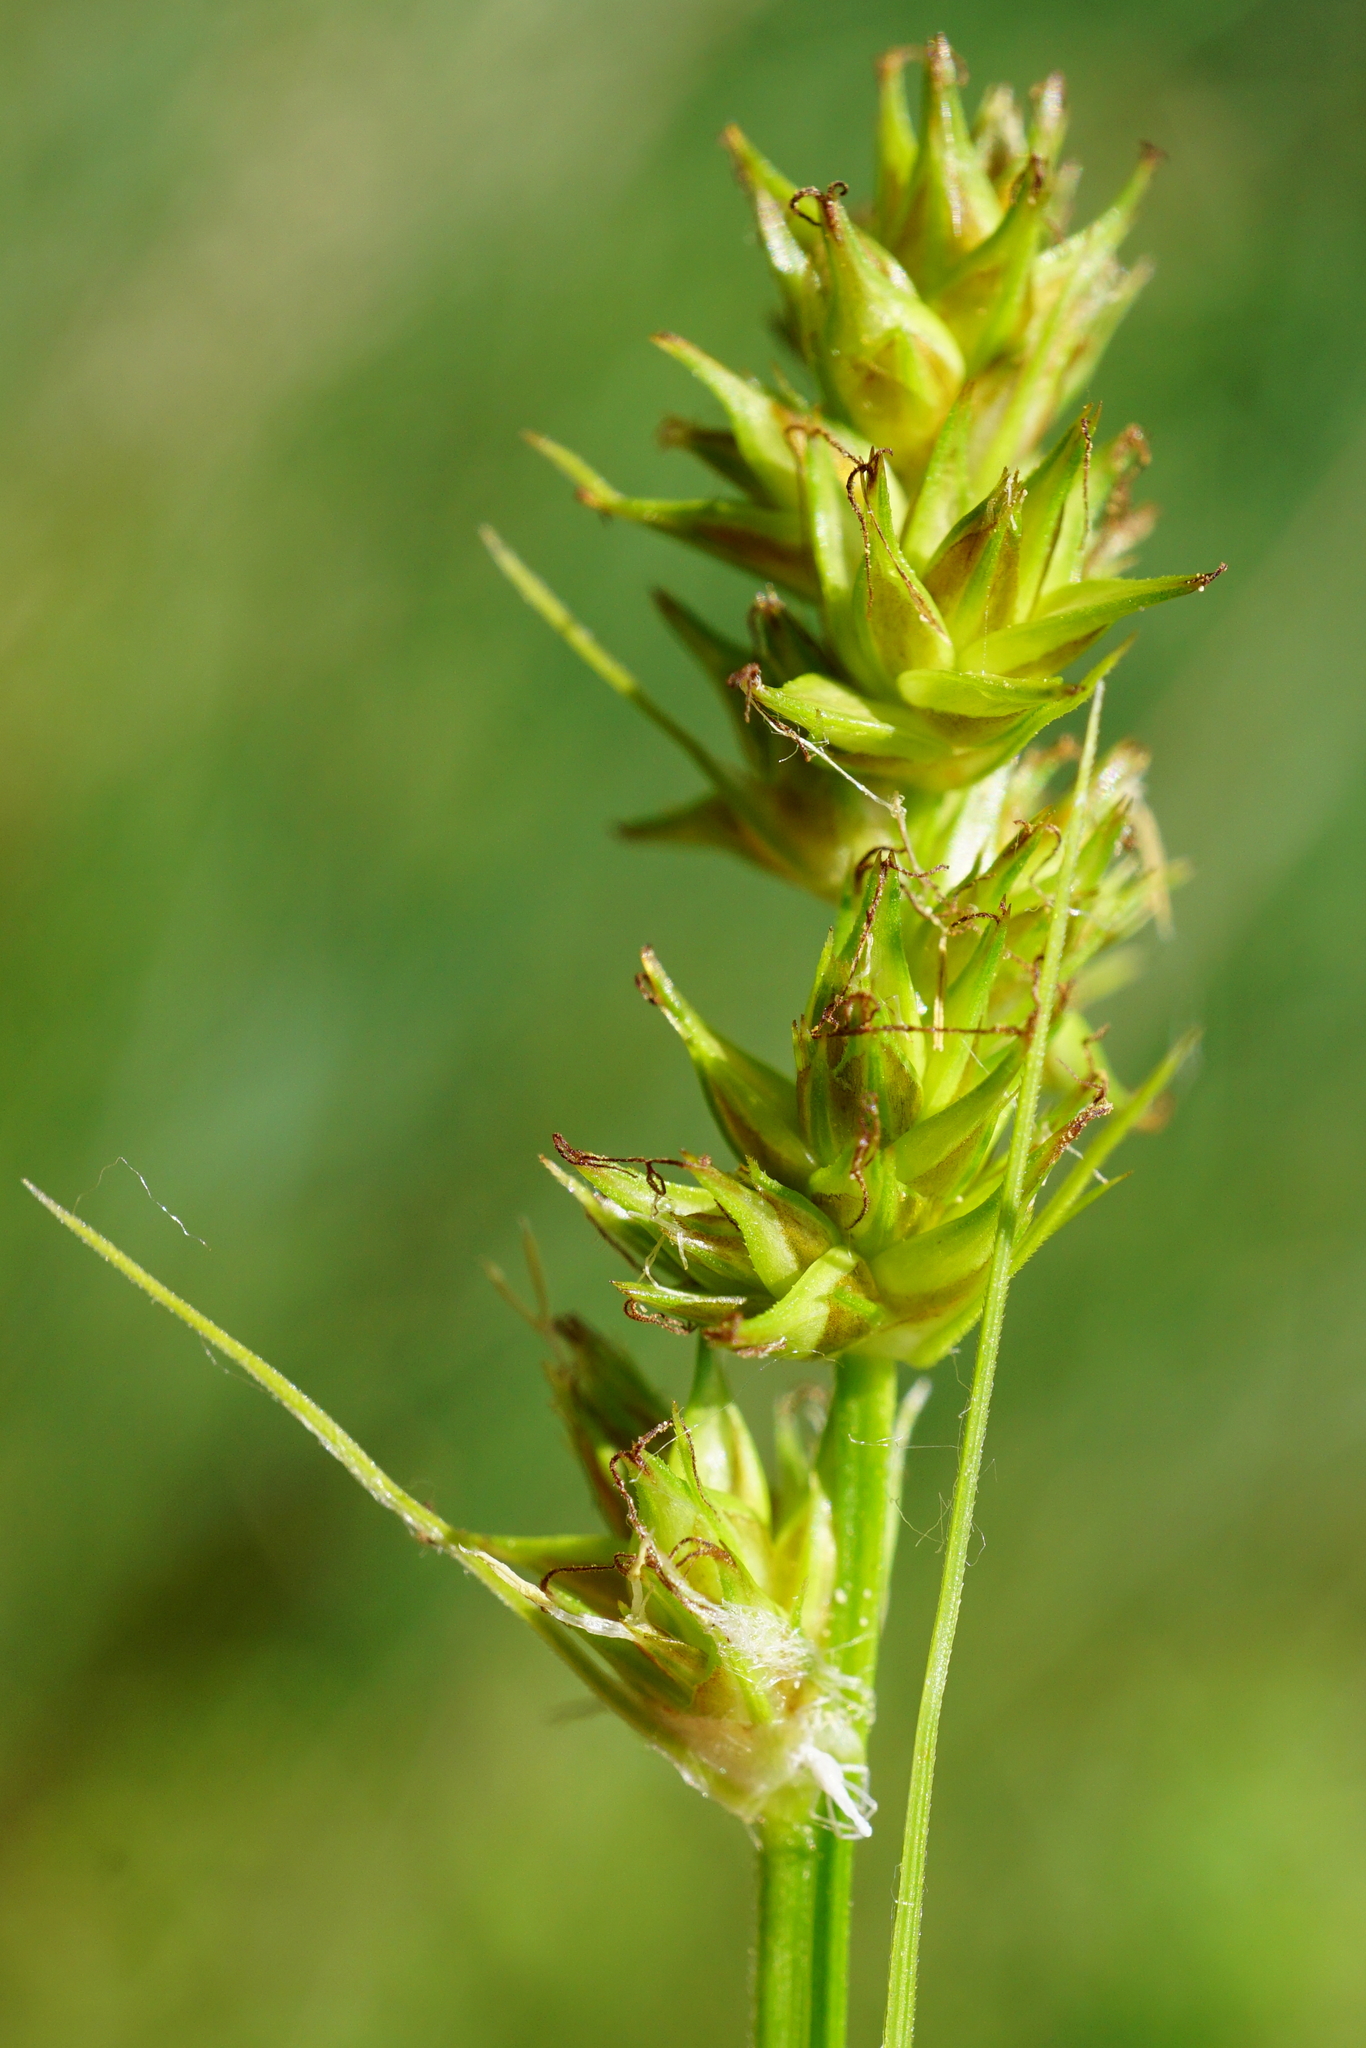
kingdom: Plantae
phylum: Tracheophyta
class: Liliopsida
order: Poales
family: Cyperaceae
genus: Carex
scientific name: Carex otrubae
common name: False fox-sedge
